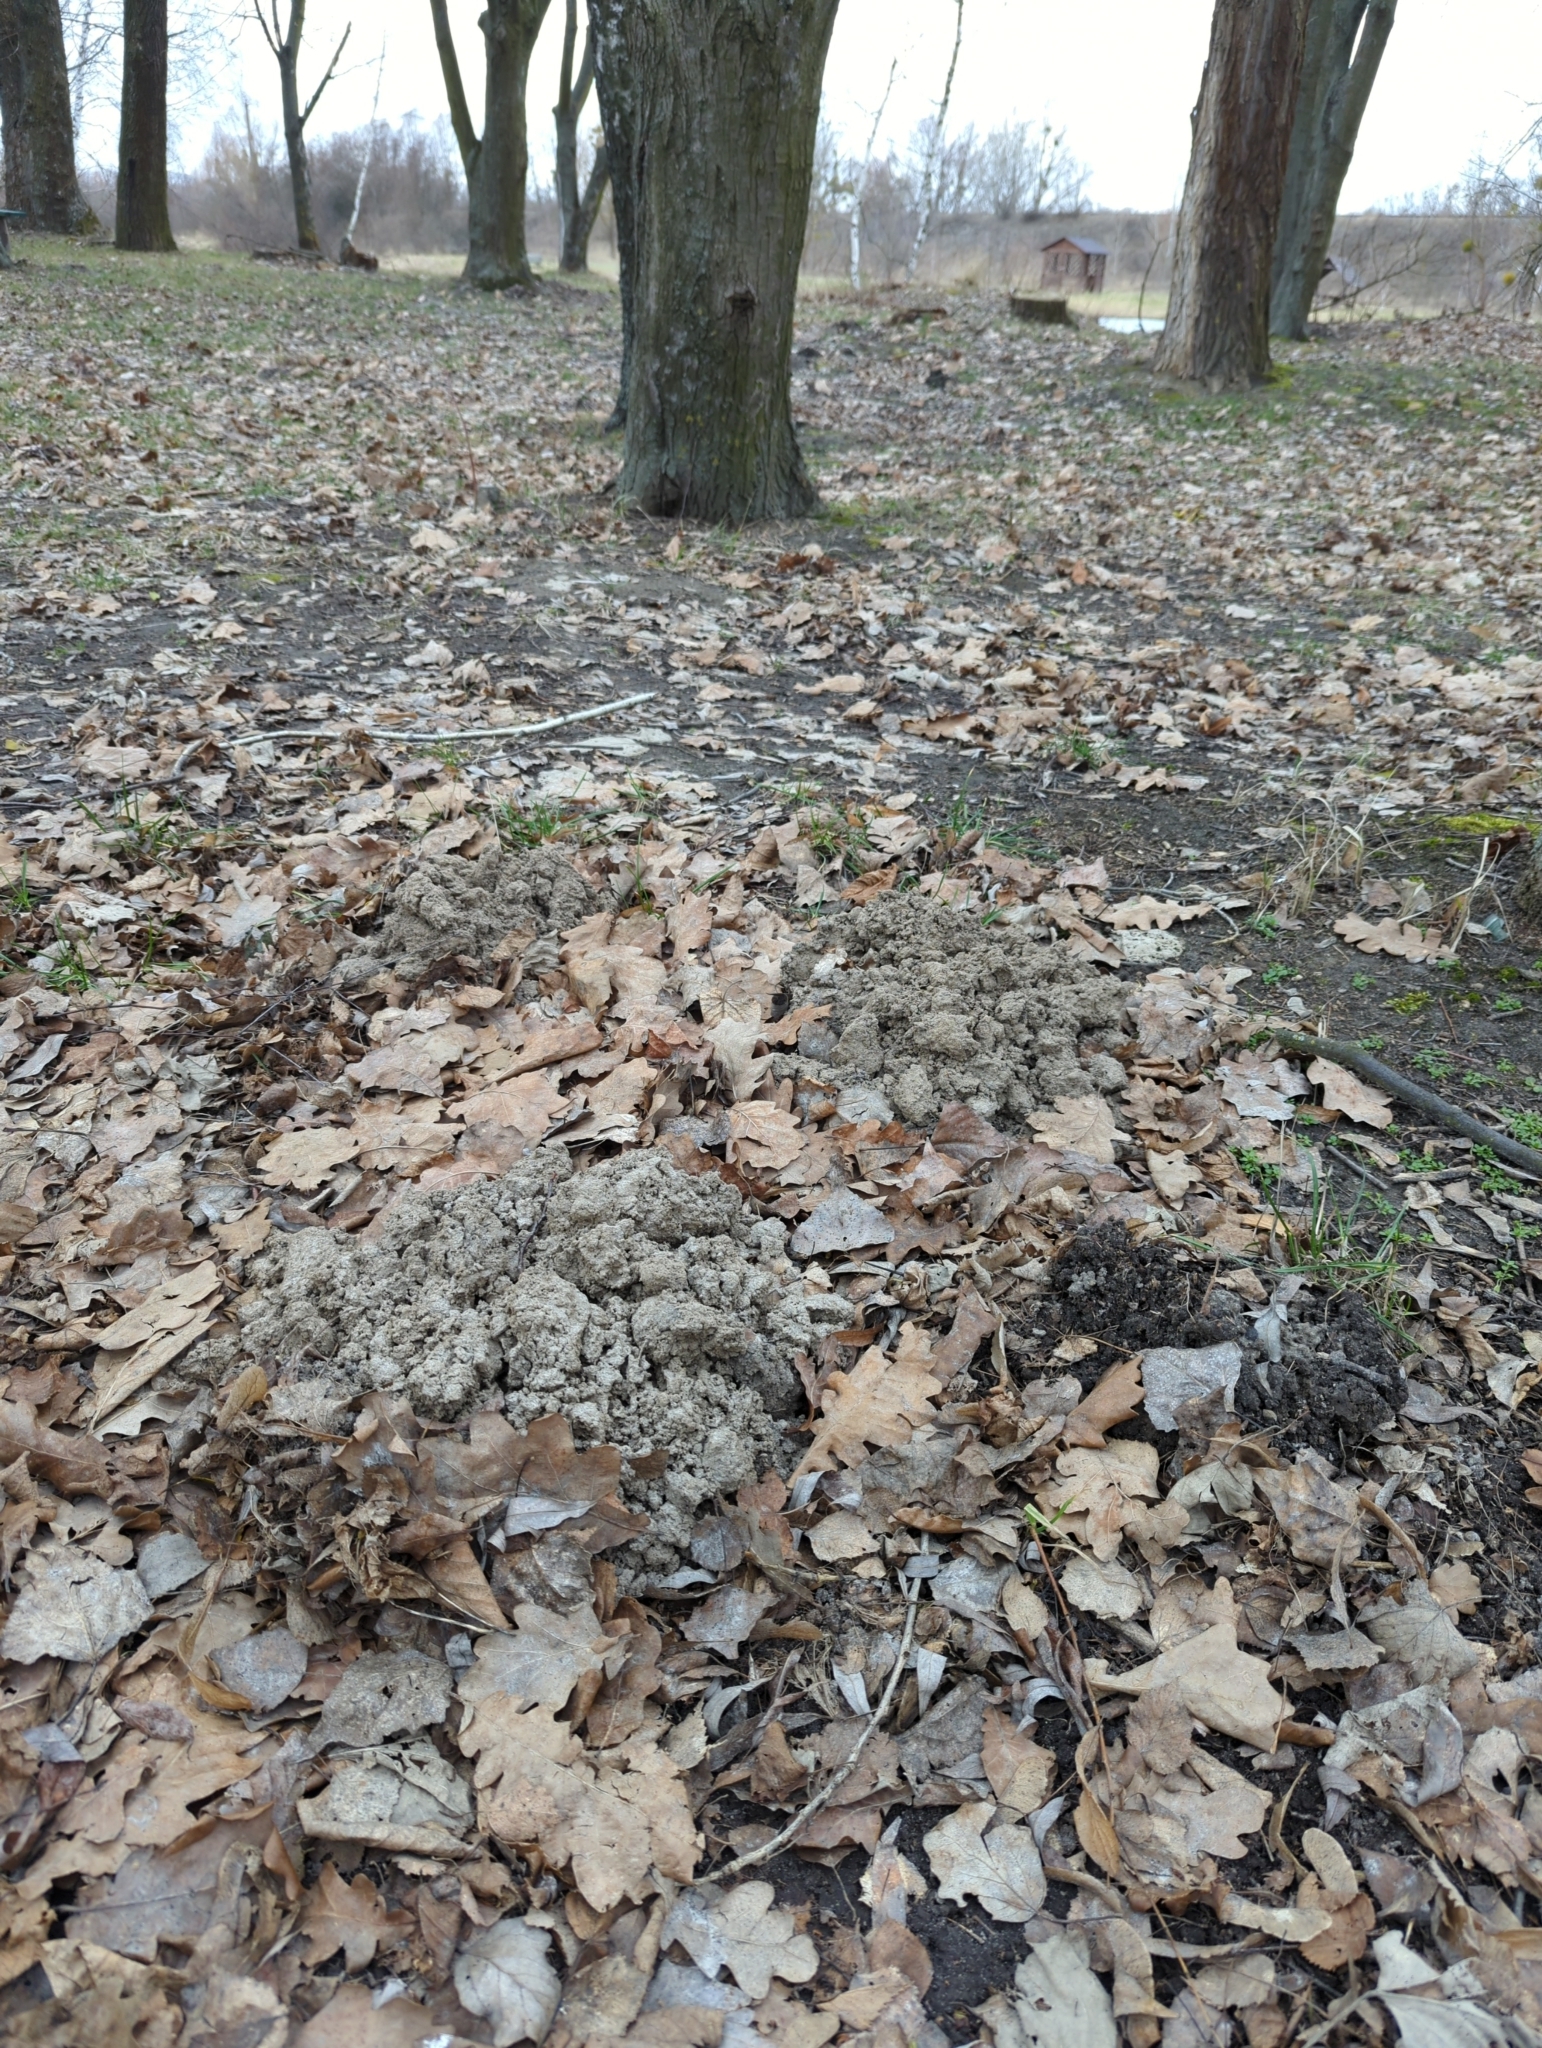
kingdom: Animalia
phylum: Chordata
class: Mammalia
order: Soricomorpha
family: Talpidae
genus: Talpa
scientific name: Talpa europaea
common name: European mole
